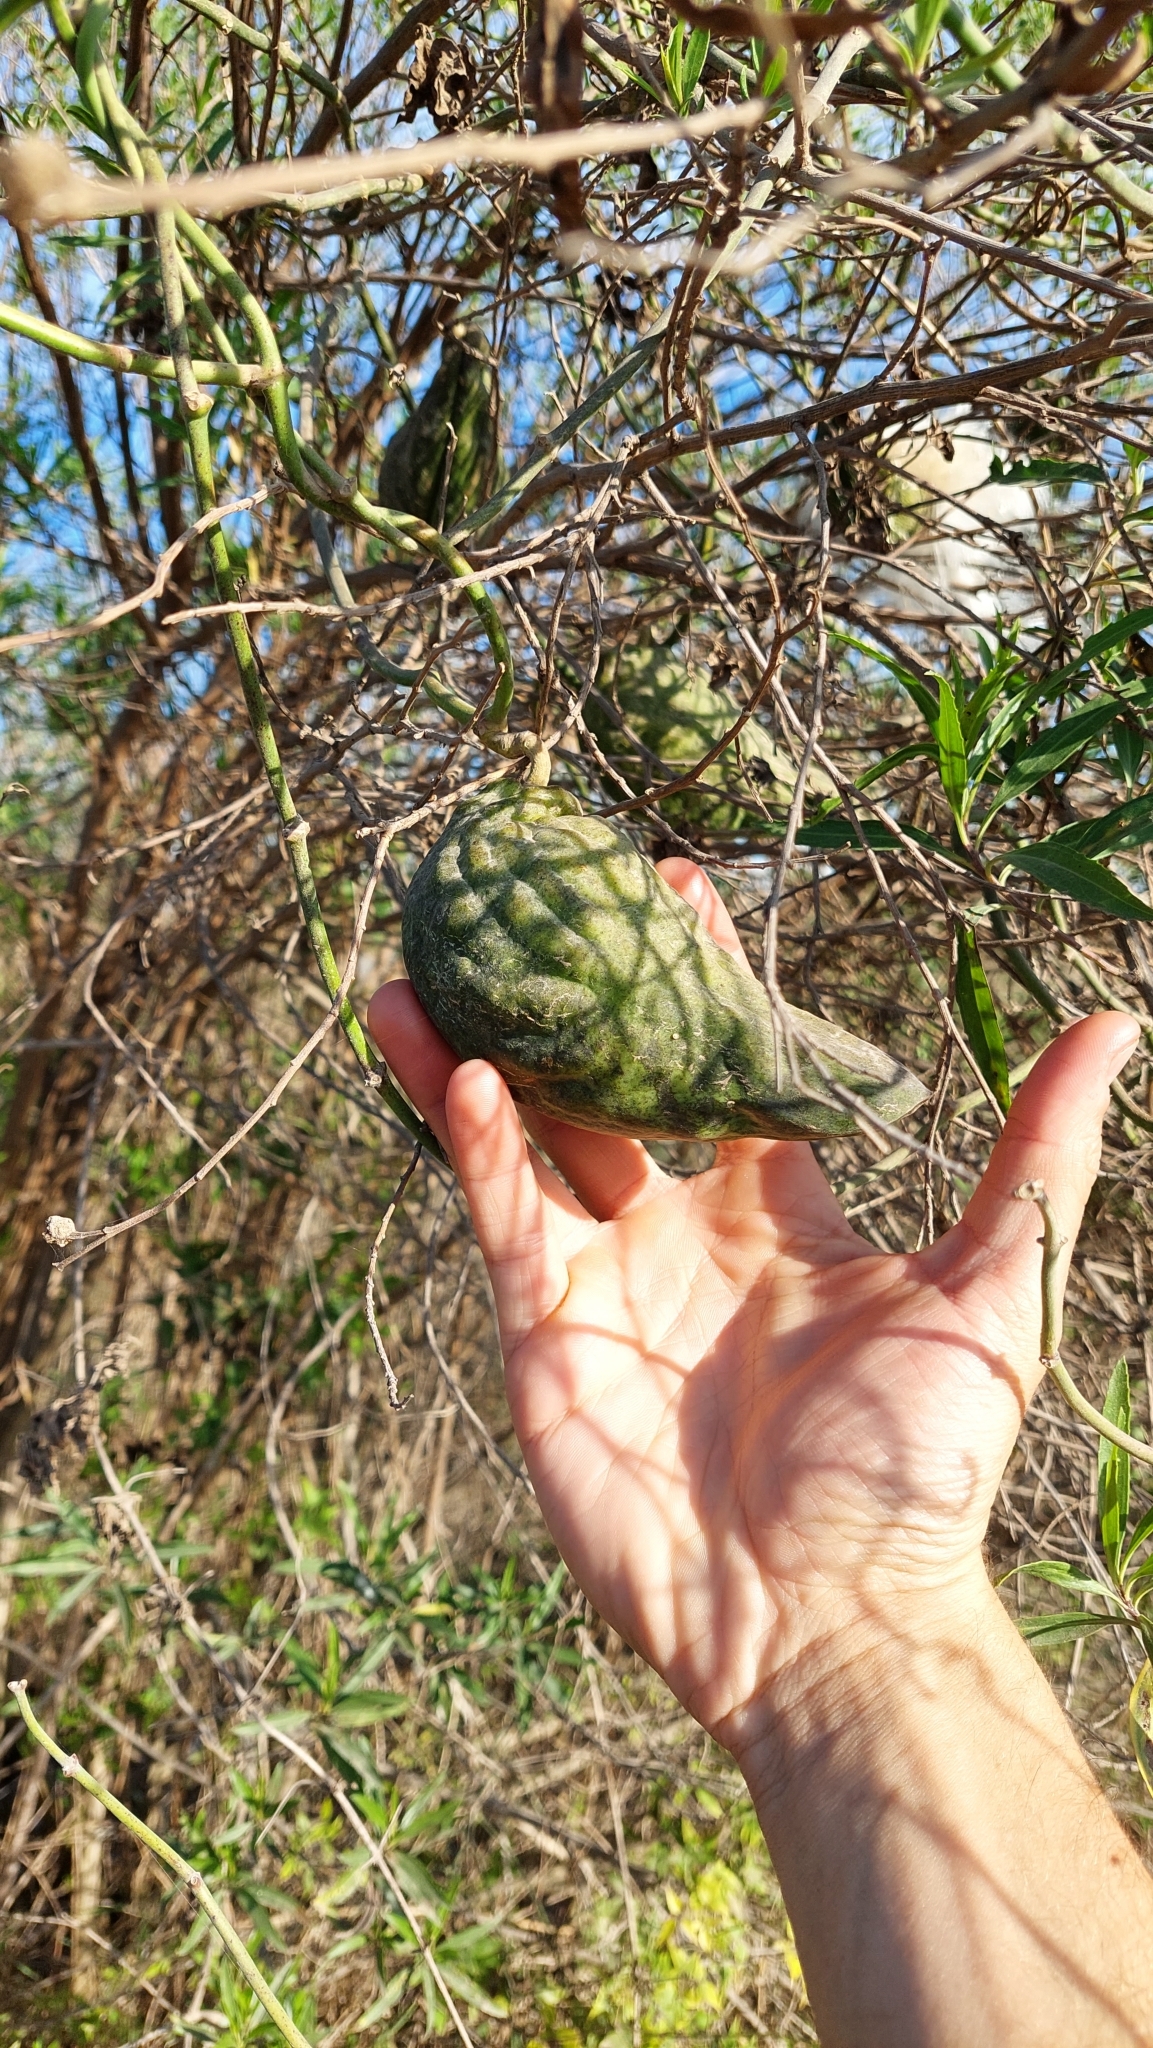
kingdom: Plantae
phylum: Tracheophyta
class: Magnoliopsida
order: Gentianales
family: Apocynaceae
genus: Araujia
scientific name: Araujia odorata
